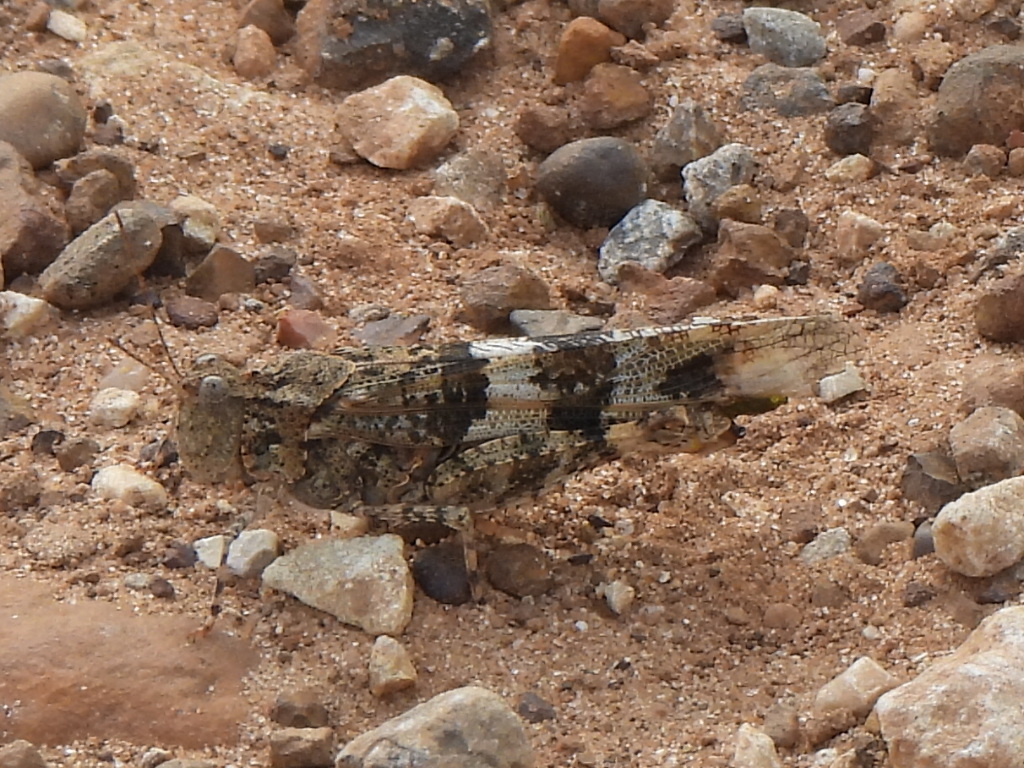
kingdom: Animalia
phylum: Arthropoda
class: Insecta
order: Orthoptera
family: Acrididae
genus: Trimerotropis
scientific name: Trimerotropis pallidipennis
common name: Pallid-winged grasshopper
